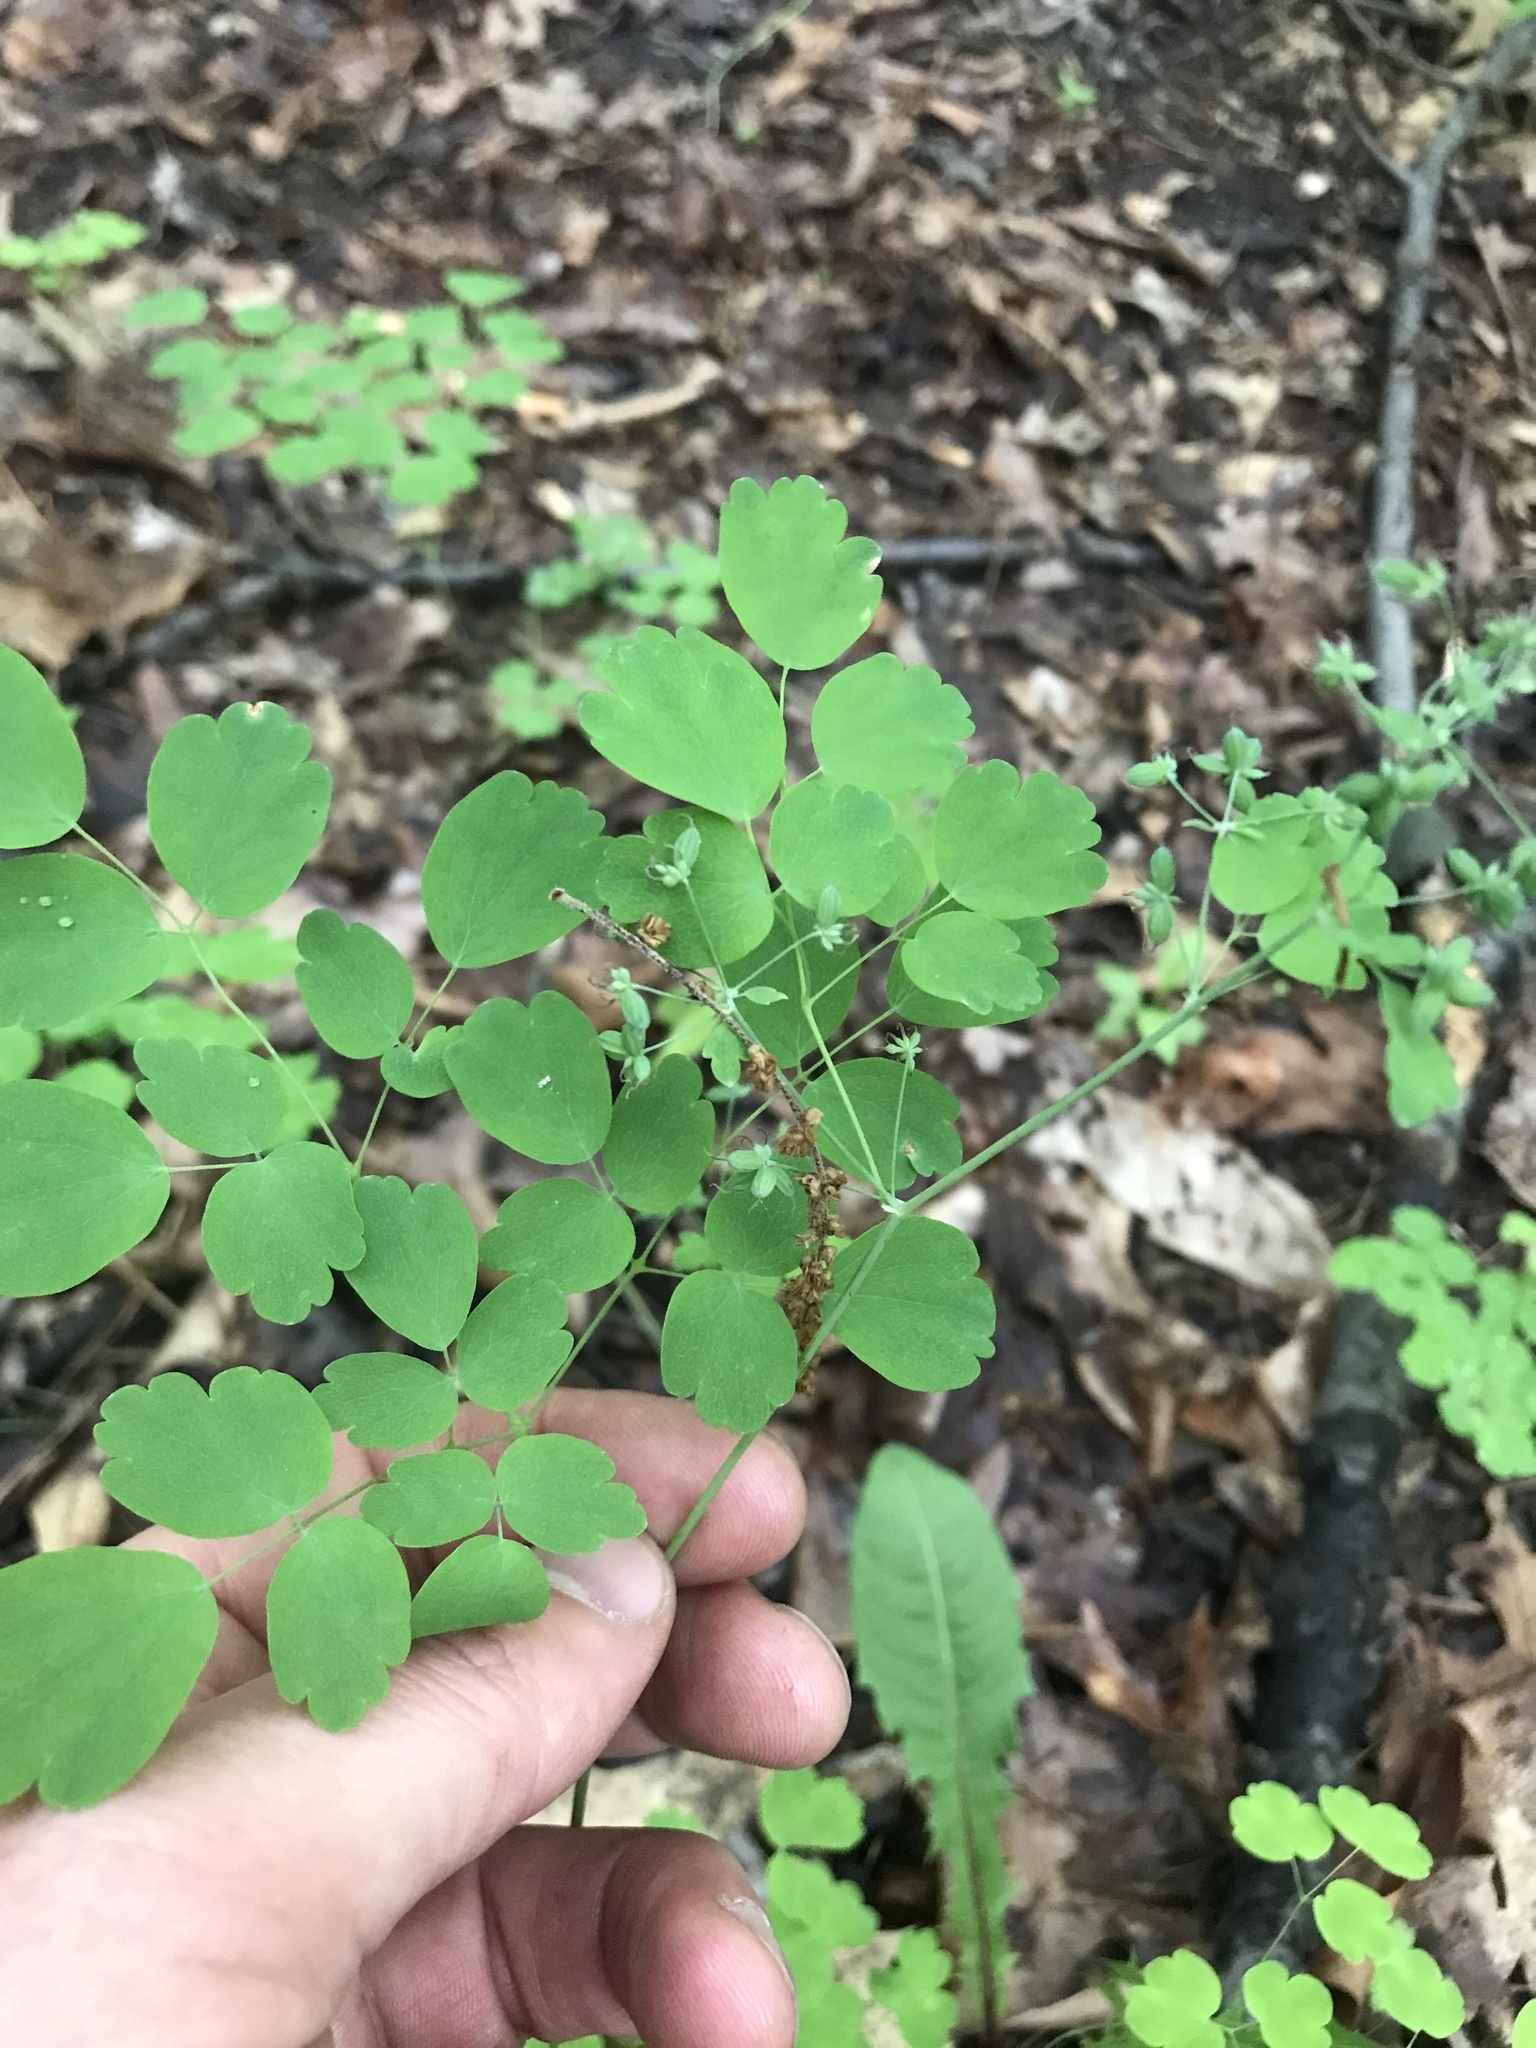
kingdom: Plantae
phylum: Tracheophyta
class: Magnoliopsida
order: Ranunculales
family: Ranunculaceae
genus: Thalictrum
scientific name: Thalictrum dioicum
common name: Early meadow-rue
